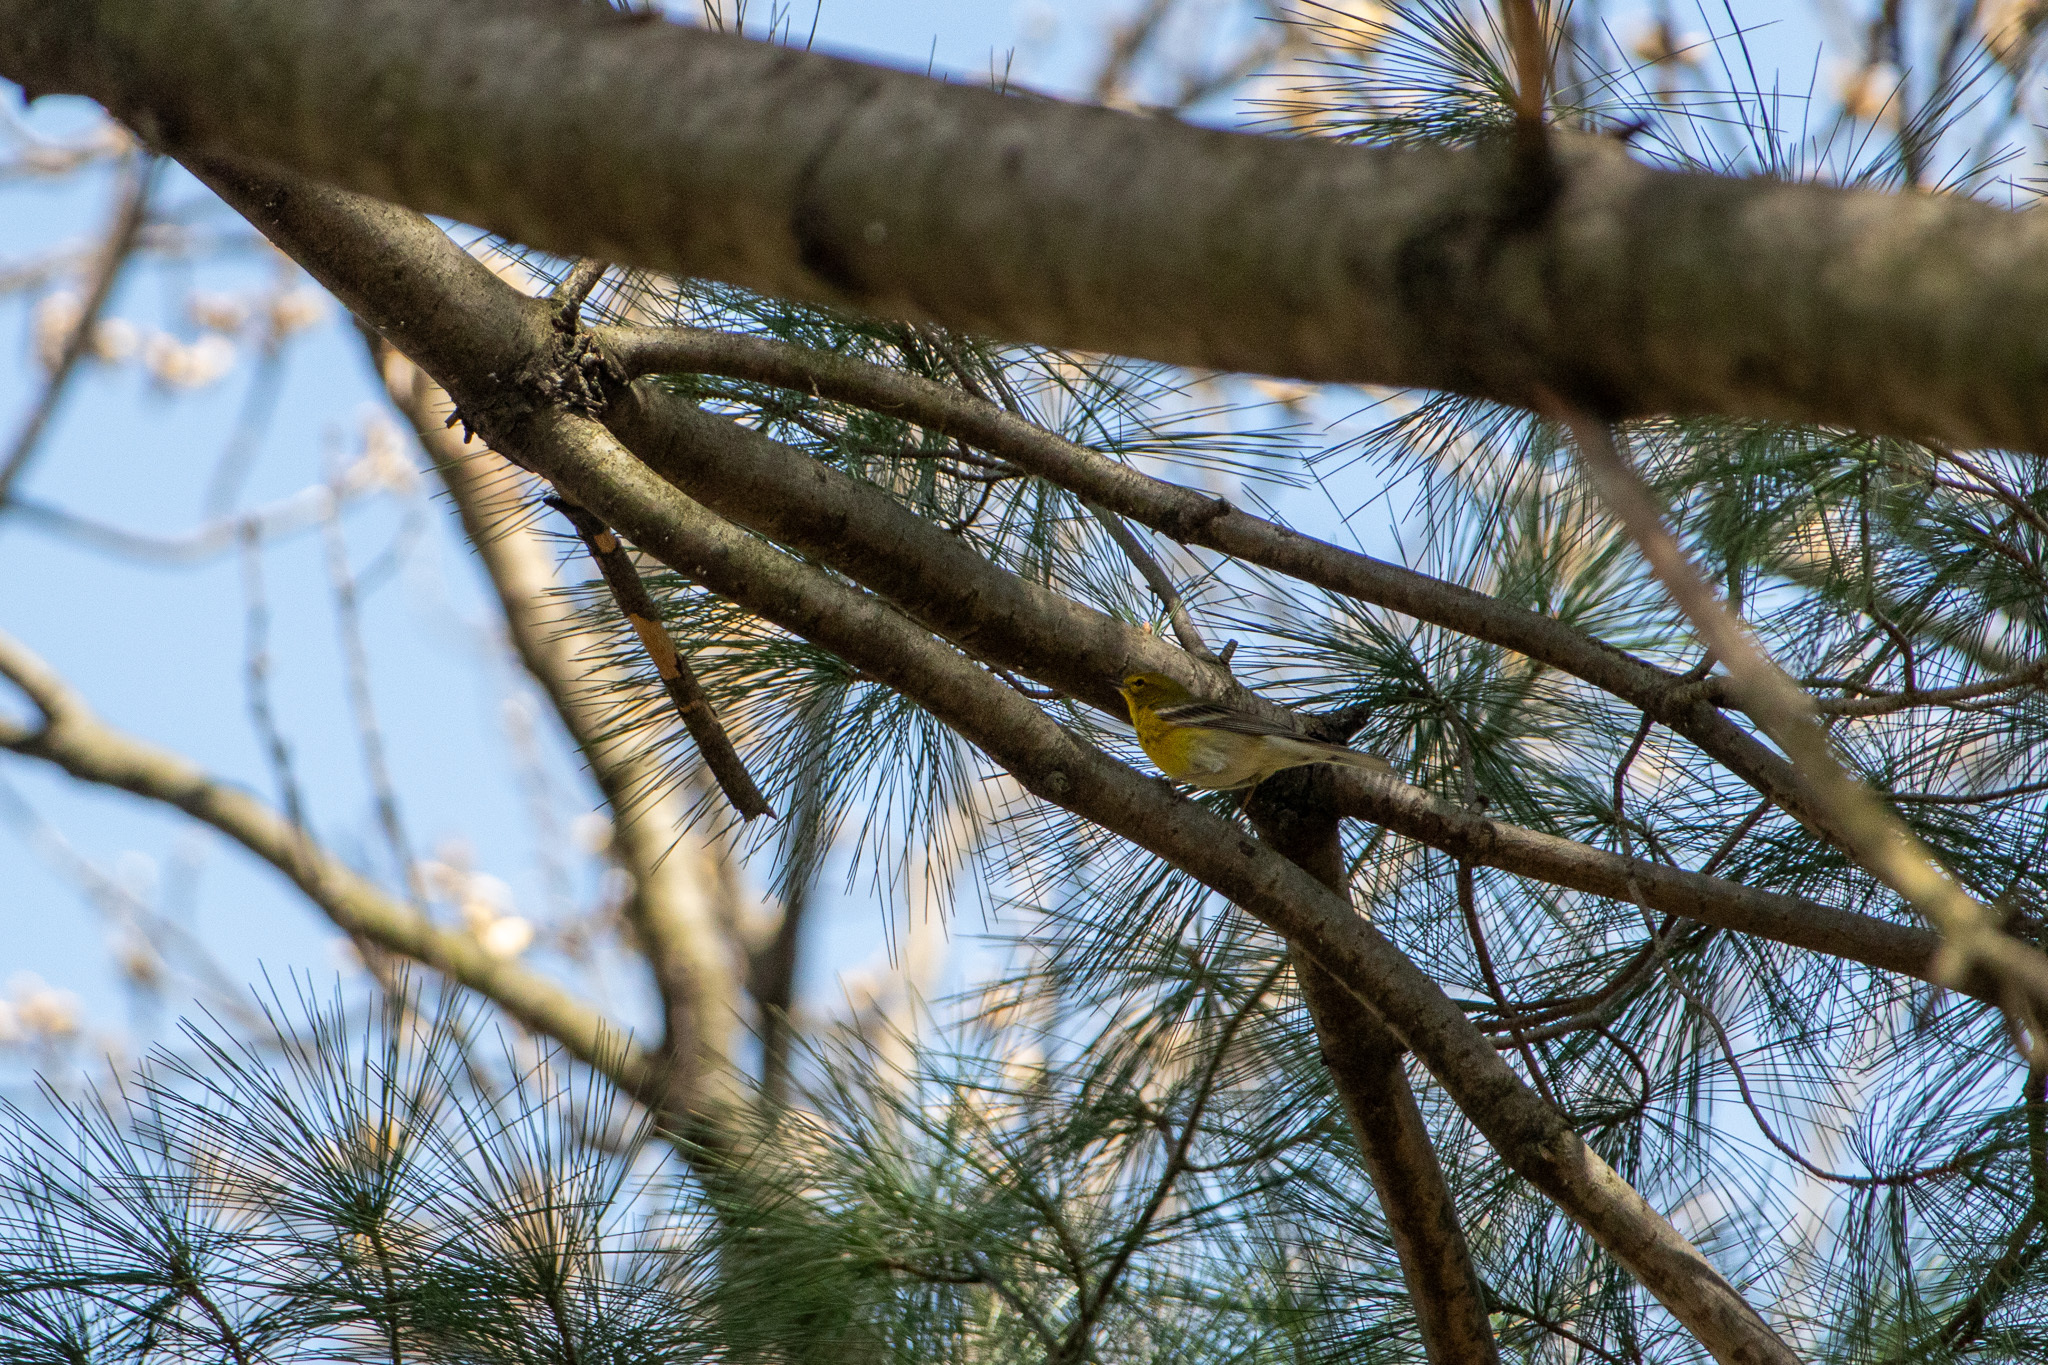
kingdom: Animalia
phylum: Chordata
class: Aves
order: Passeriformes
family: Parulidae
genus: Setophaga
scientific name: Setophaga pinus
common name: Pine warbler
